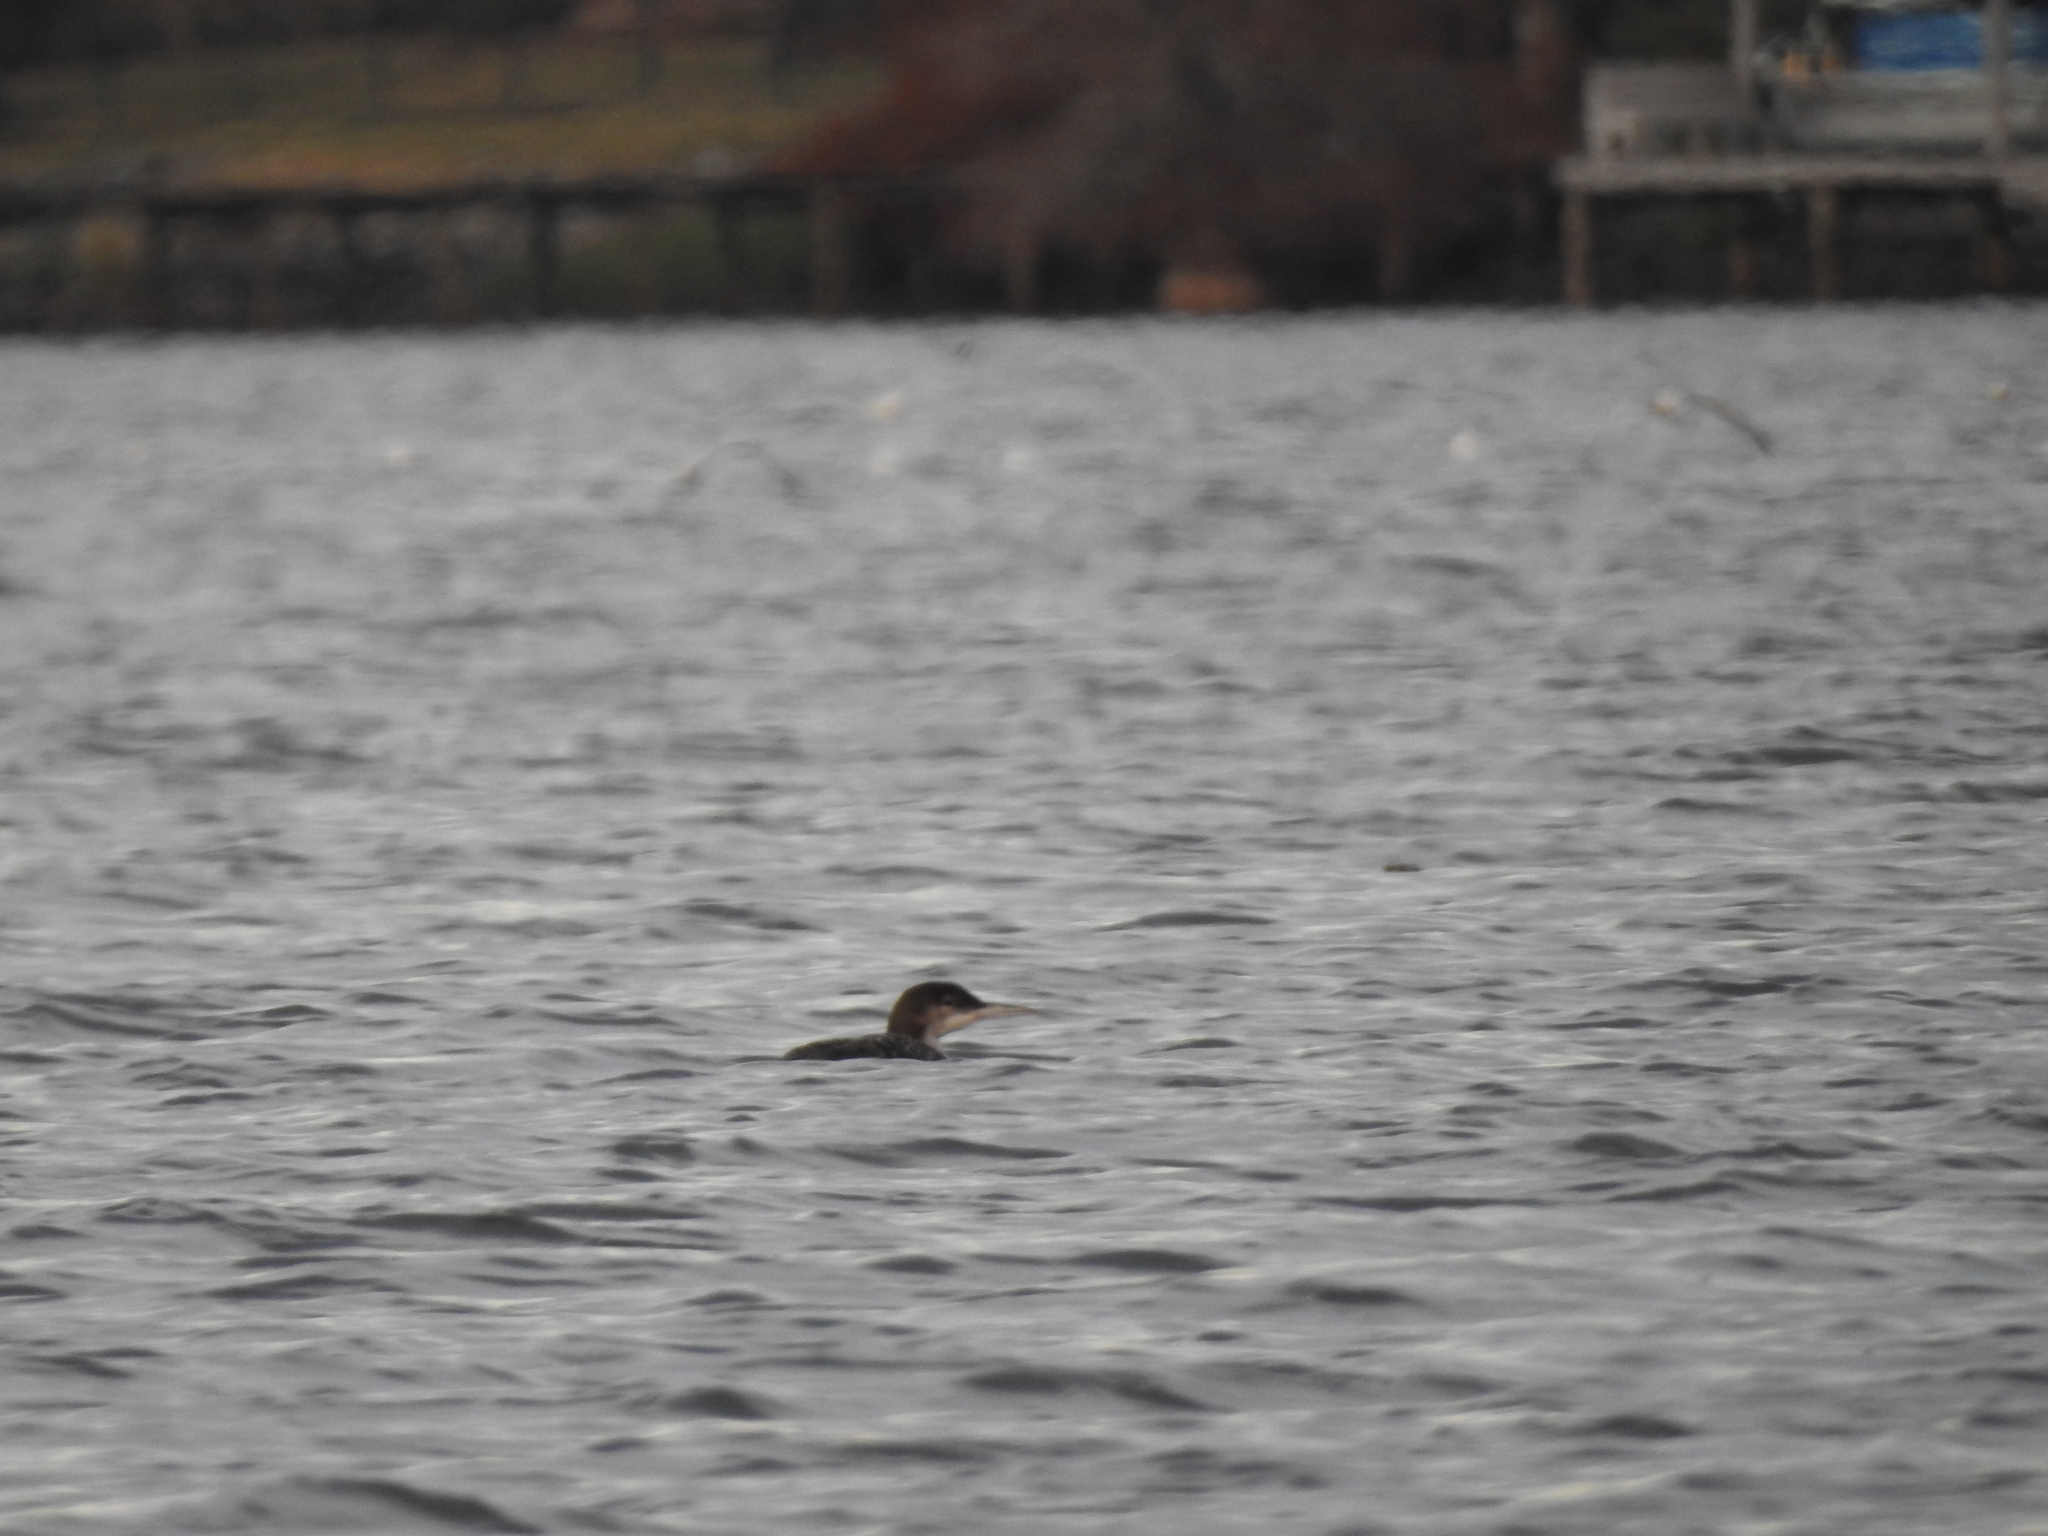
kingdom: Animalia
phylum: Chordata
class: Aves
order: Gaviiformes
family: Gaviidae
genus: Gavia
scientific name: Gavia immer
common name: Common loon
